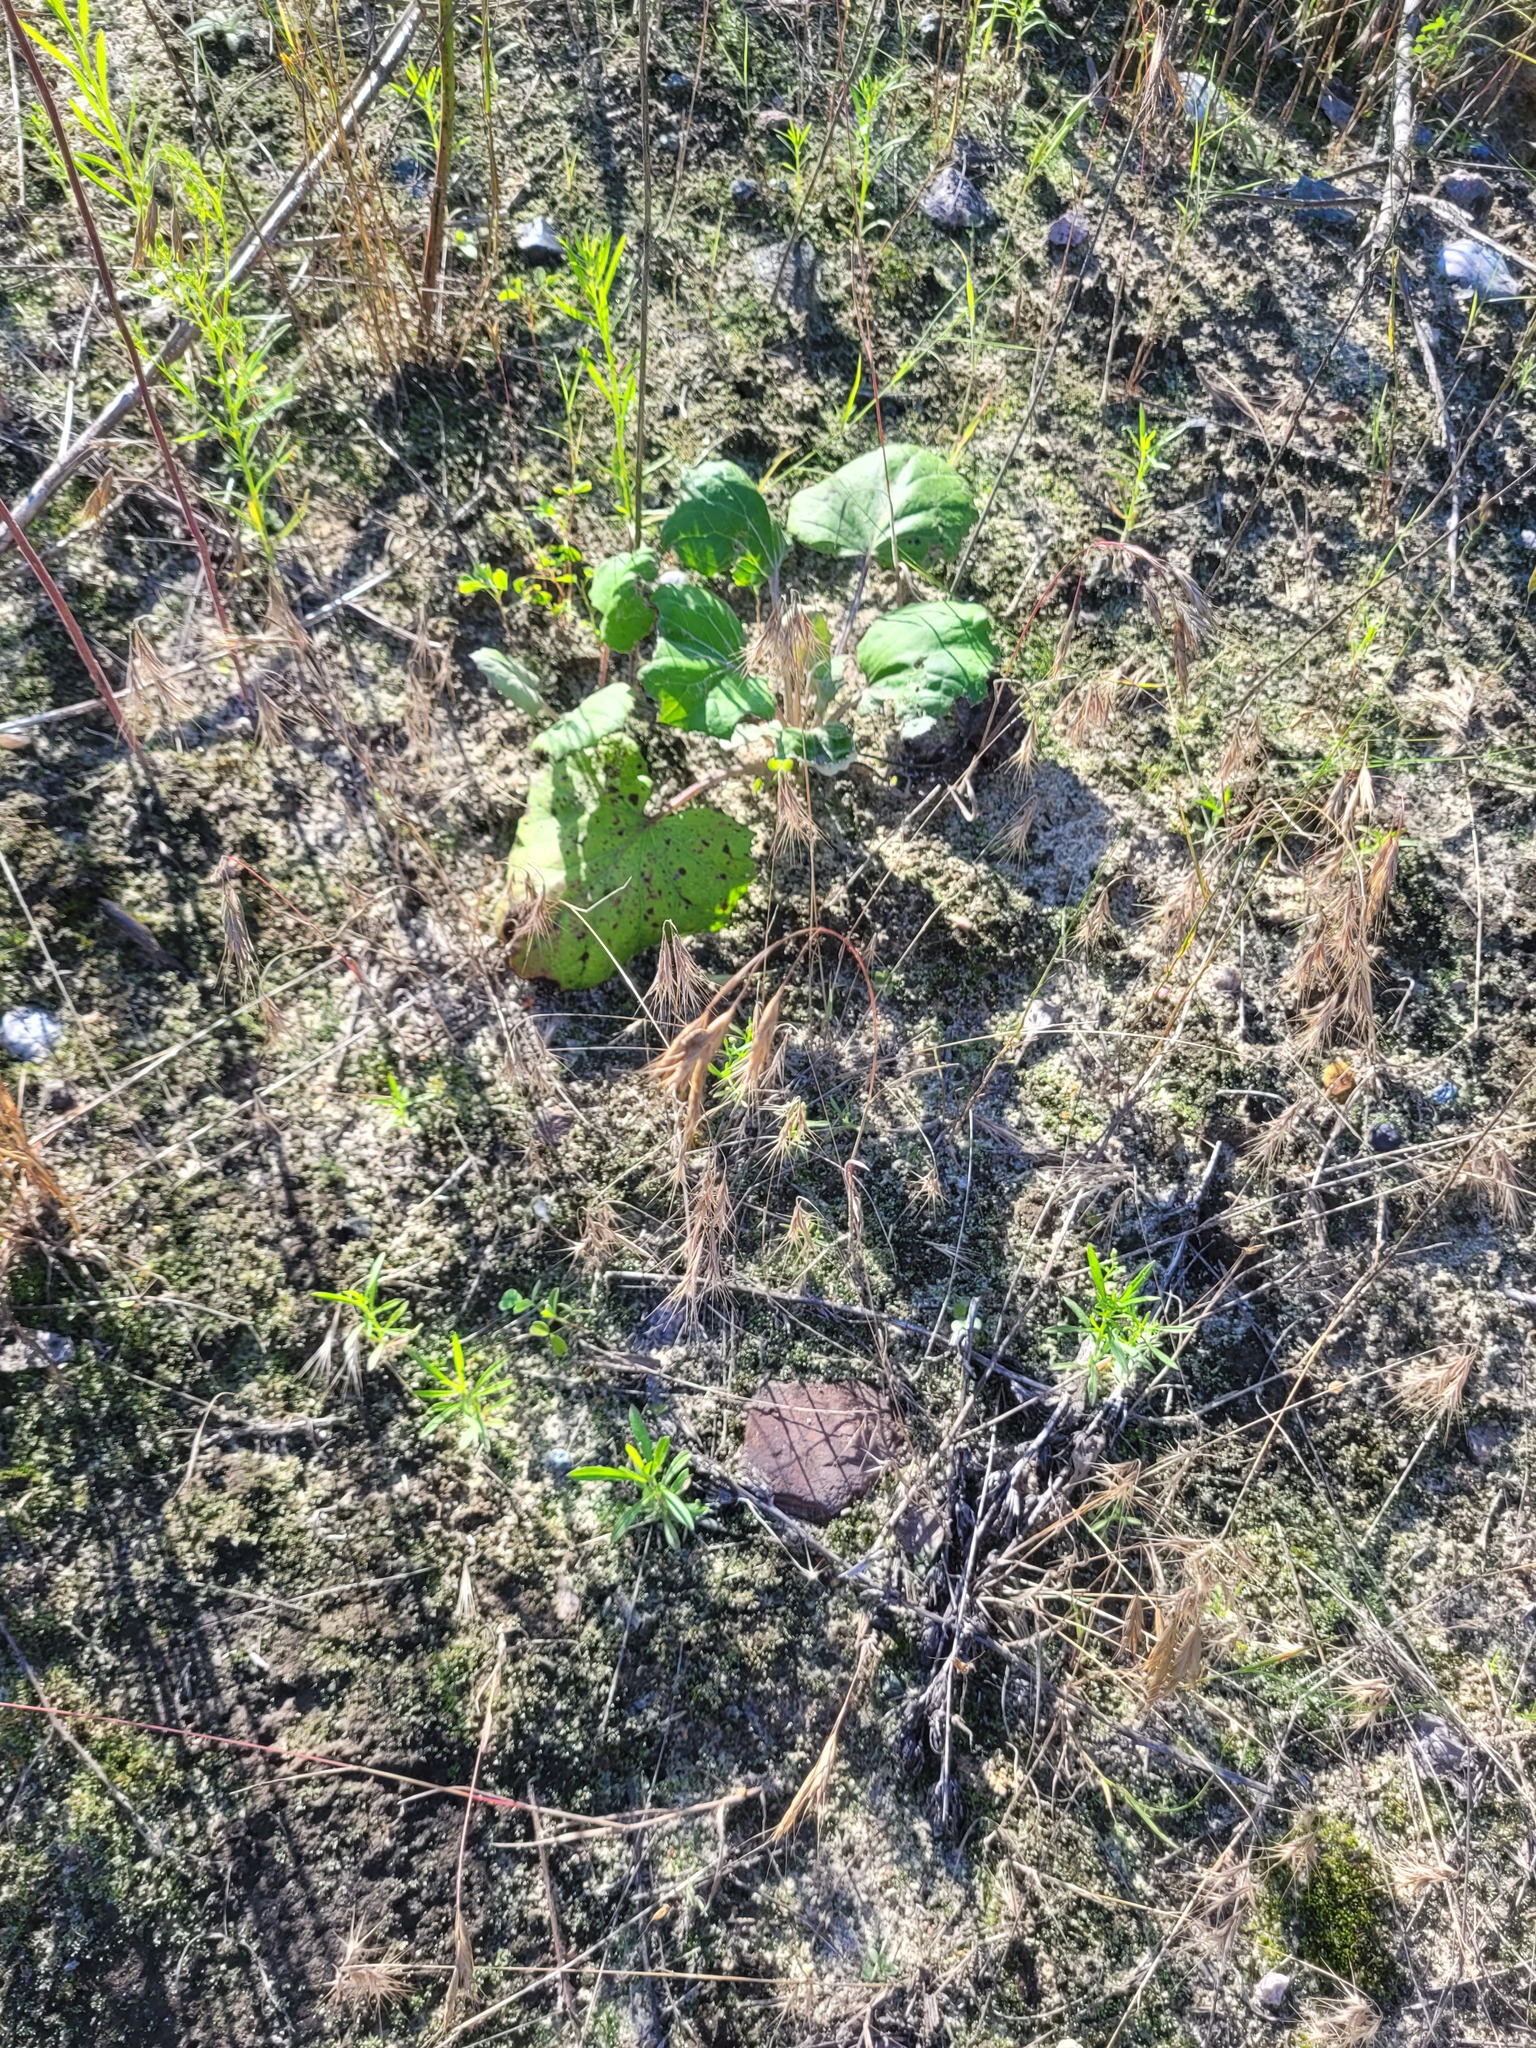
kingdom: Plantae
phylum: Tracheophyta
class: Liliopsida
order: Poales
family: Poaceae
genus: Bromus
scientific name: Bromus tectorum
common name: Cheatgrass
